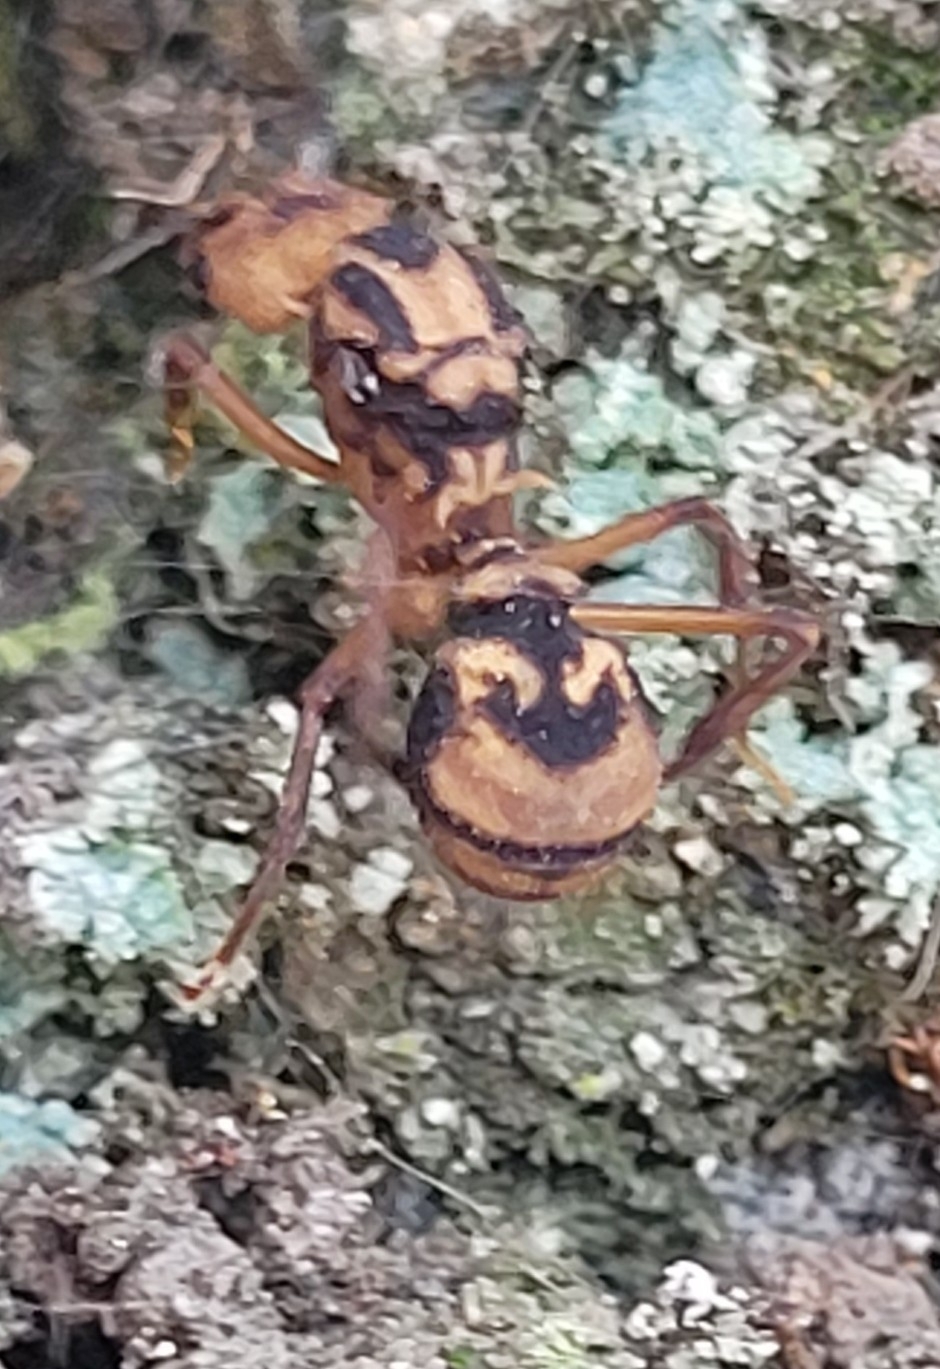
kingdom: Animalia
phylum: Arthropoda
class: Insecta
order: Hymenoptera
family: Formicidae
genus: Acromyrmex
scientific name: Acromyrmex coronatus
